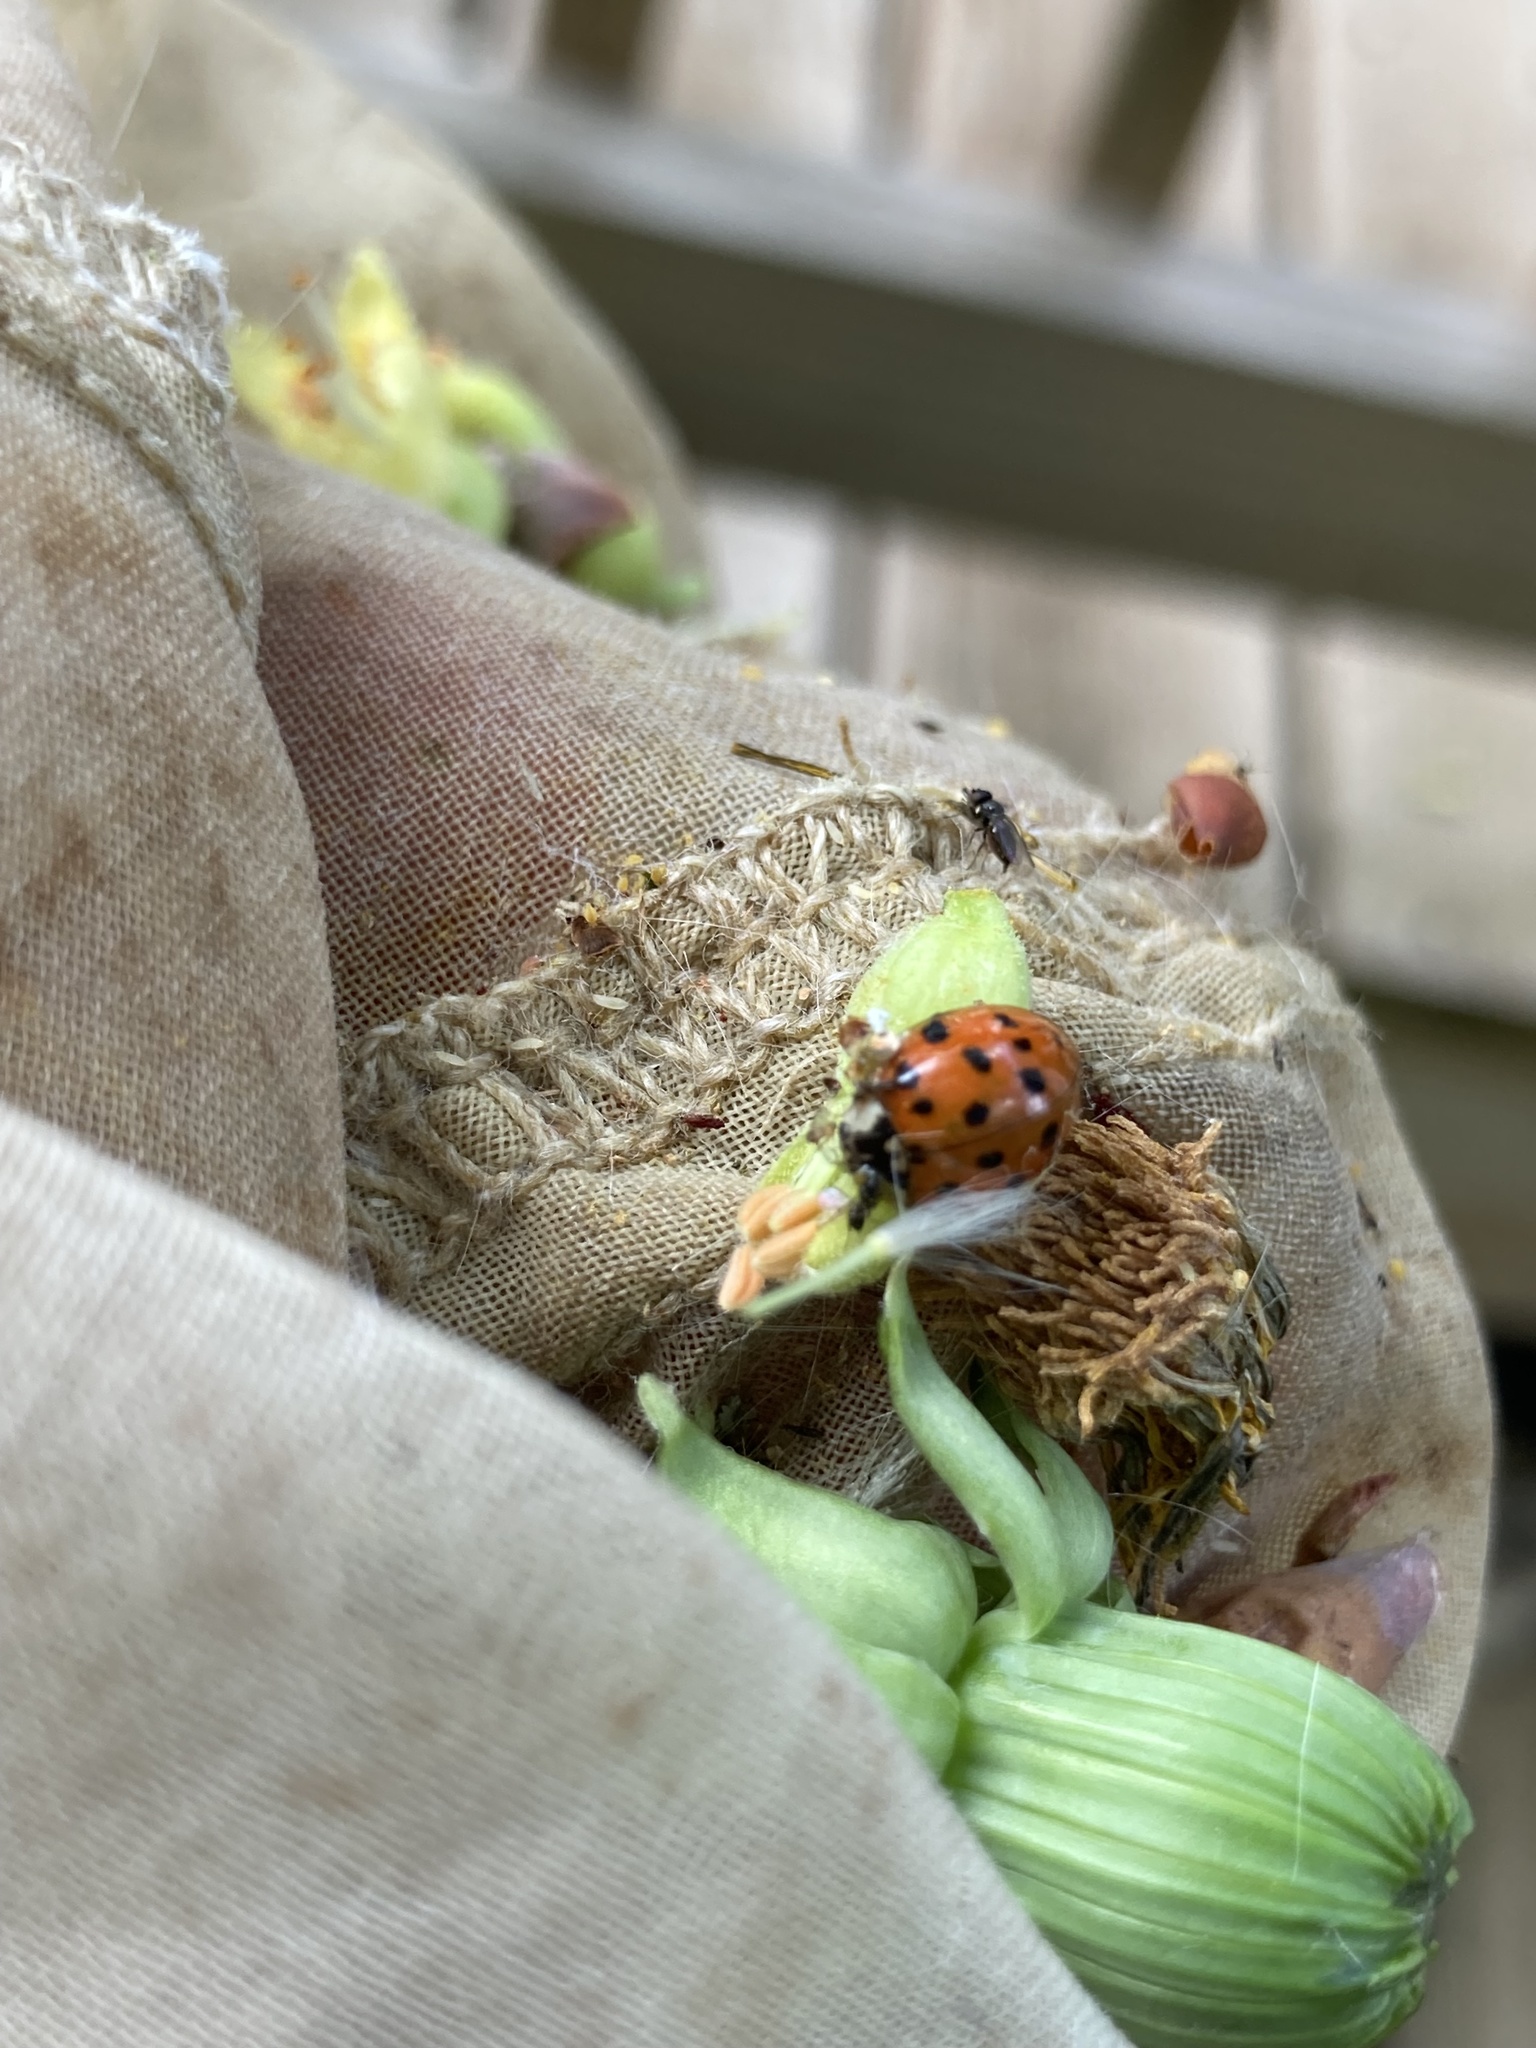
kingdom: Animalia
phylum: Arthropoda
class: Insecta
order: Coleoptera
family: Coccinellidae
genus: Harmonia
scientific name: Harmonia axyridis
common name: Harlequin ladybird
